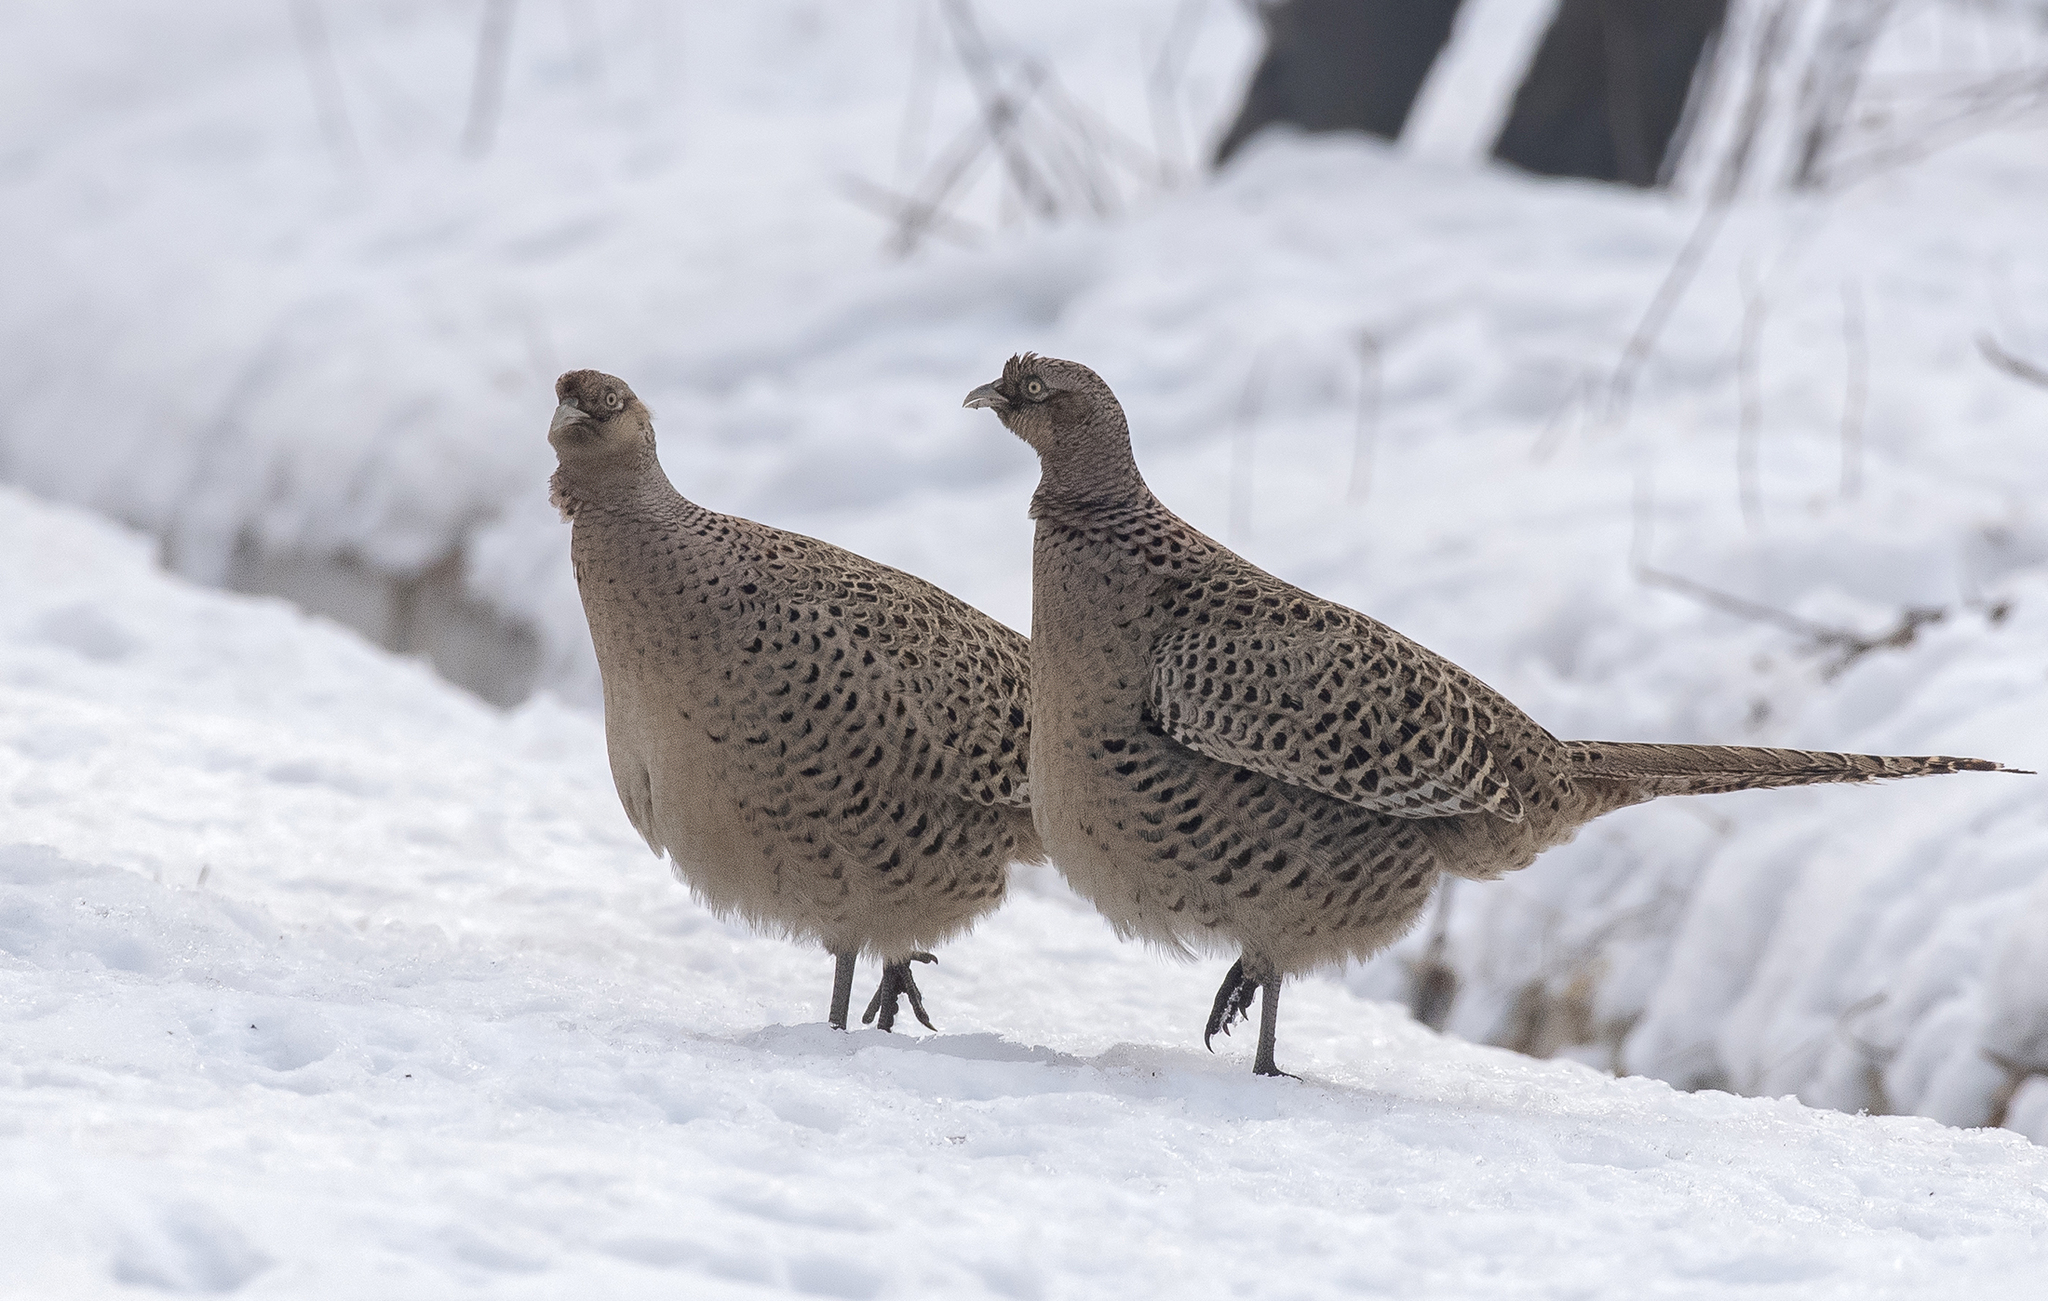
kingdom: Animalia
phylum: Chordata
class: Aves
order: Galliformes
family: Phasianidae
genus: Phasianus
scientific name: Phasianus colchicus
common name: Common pheasant
